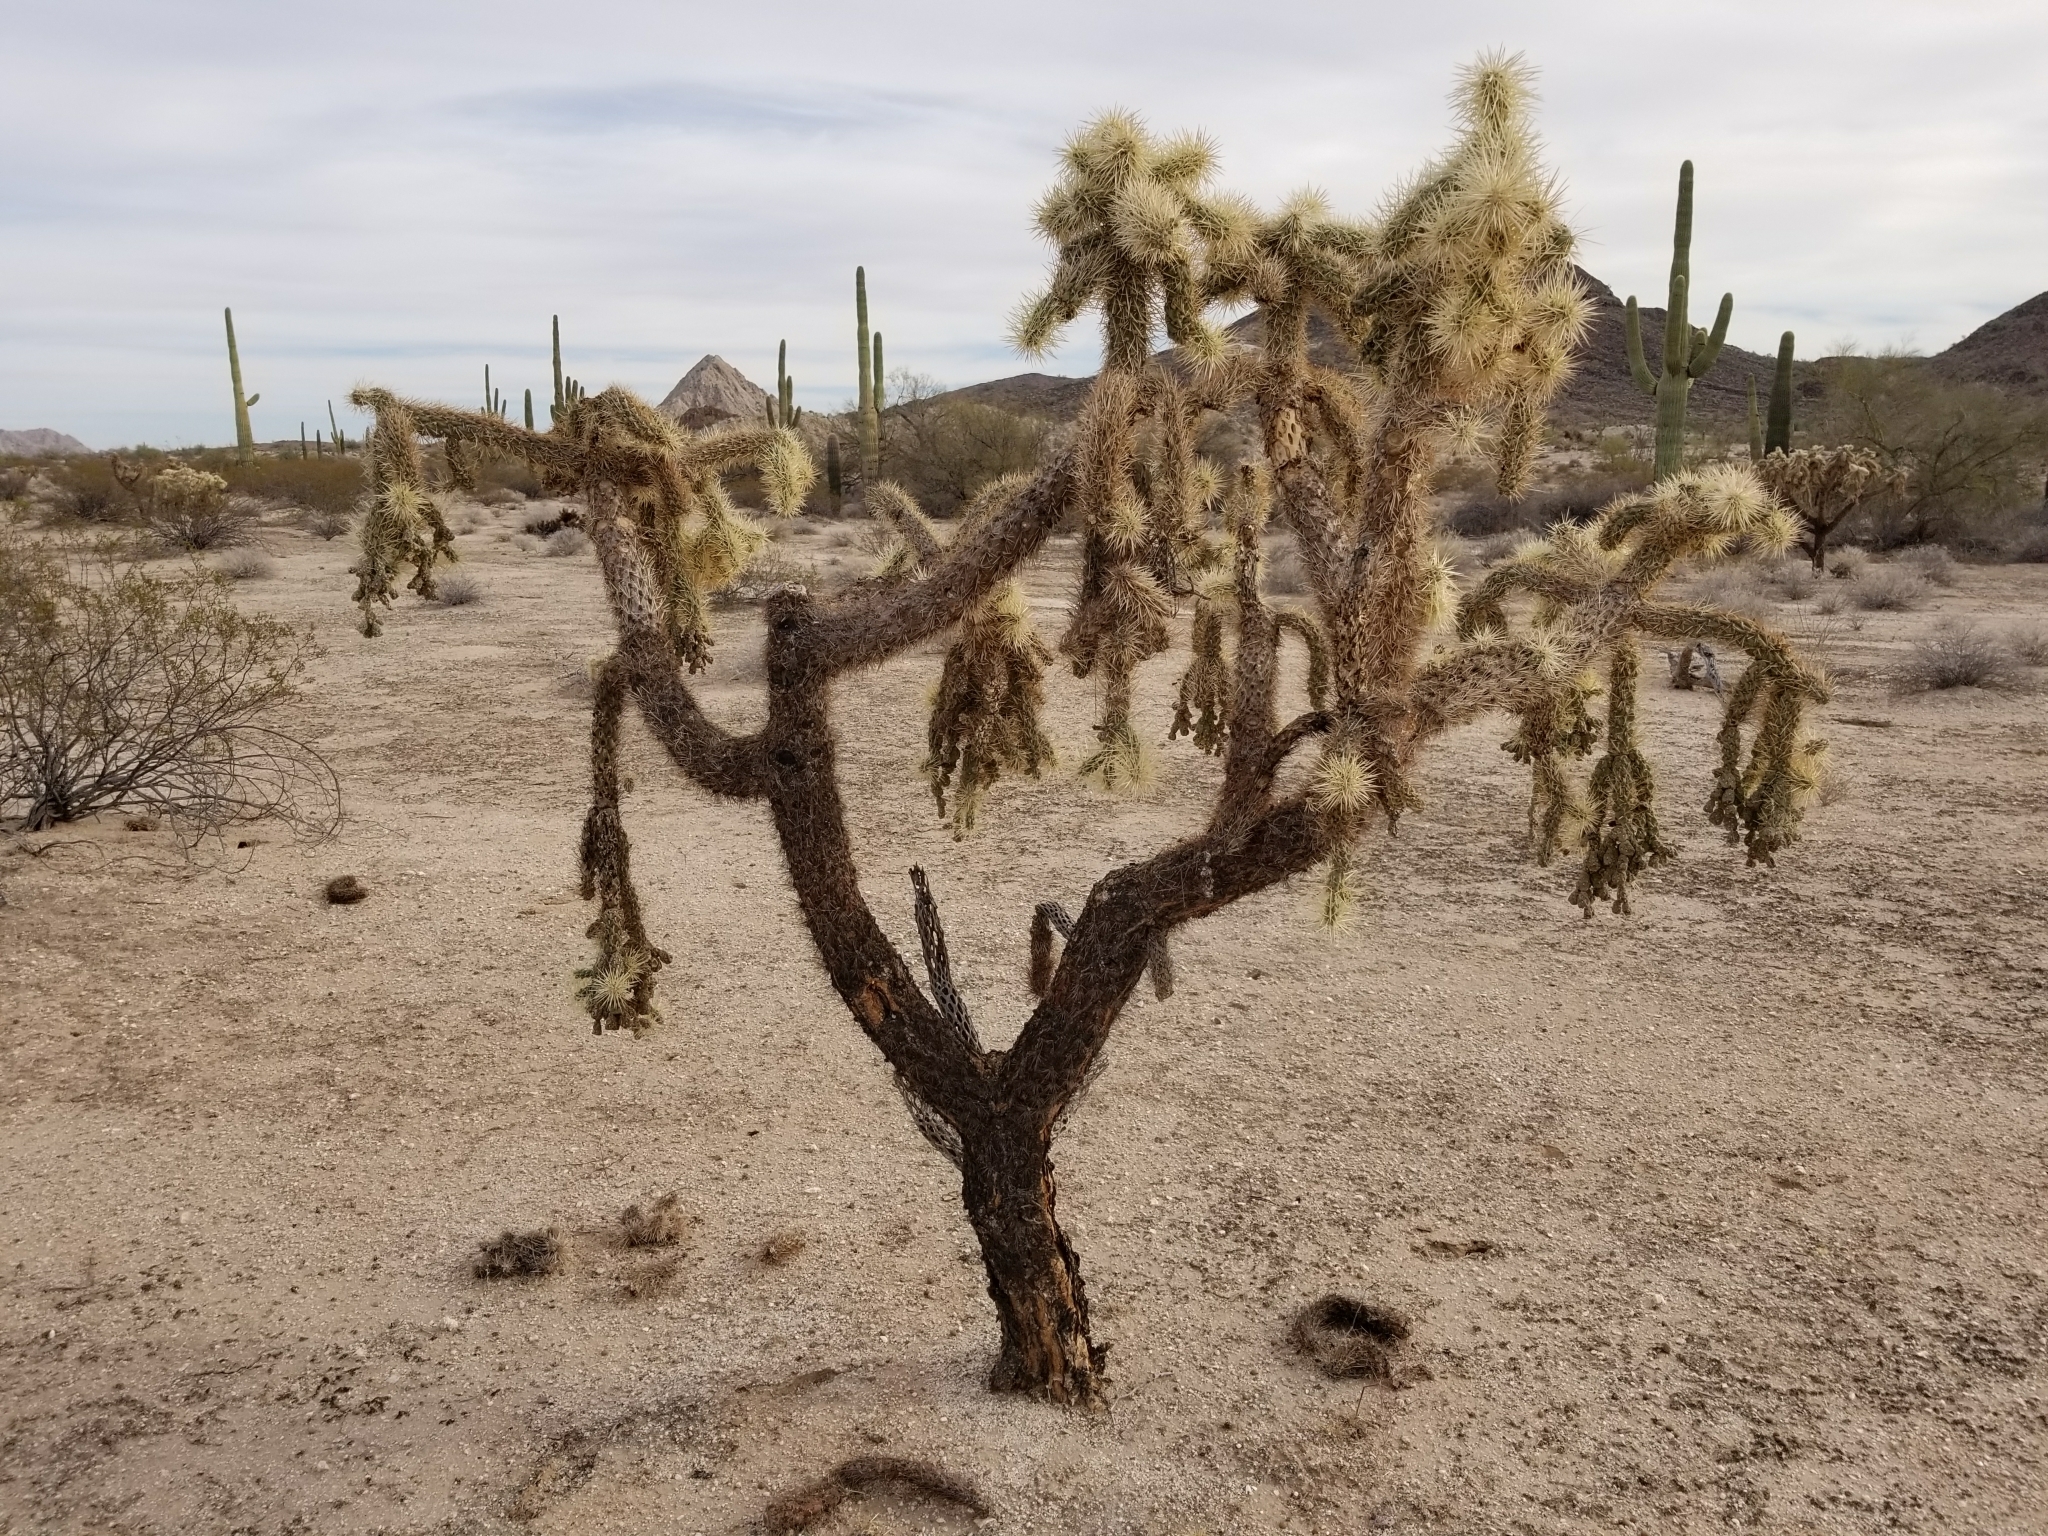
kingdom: Plantae
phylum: Tracheophyta
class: Magnoliopsida
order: Caryophyllales
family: Cactaceae
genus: Cylindropuntia
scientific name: Cylindropuntia fulgida
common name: Jumping cholla
